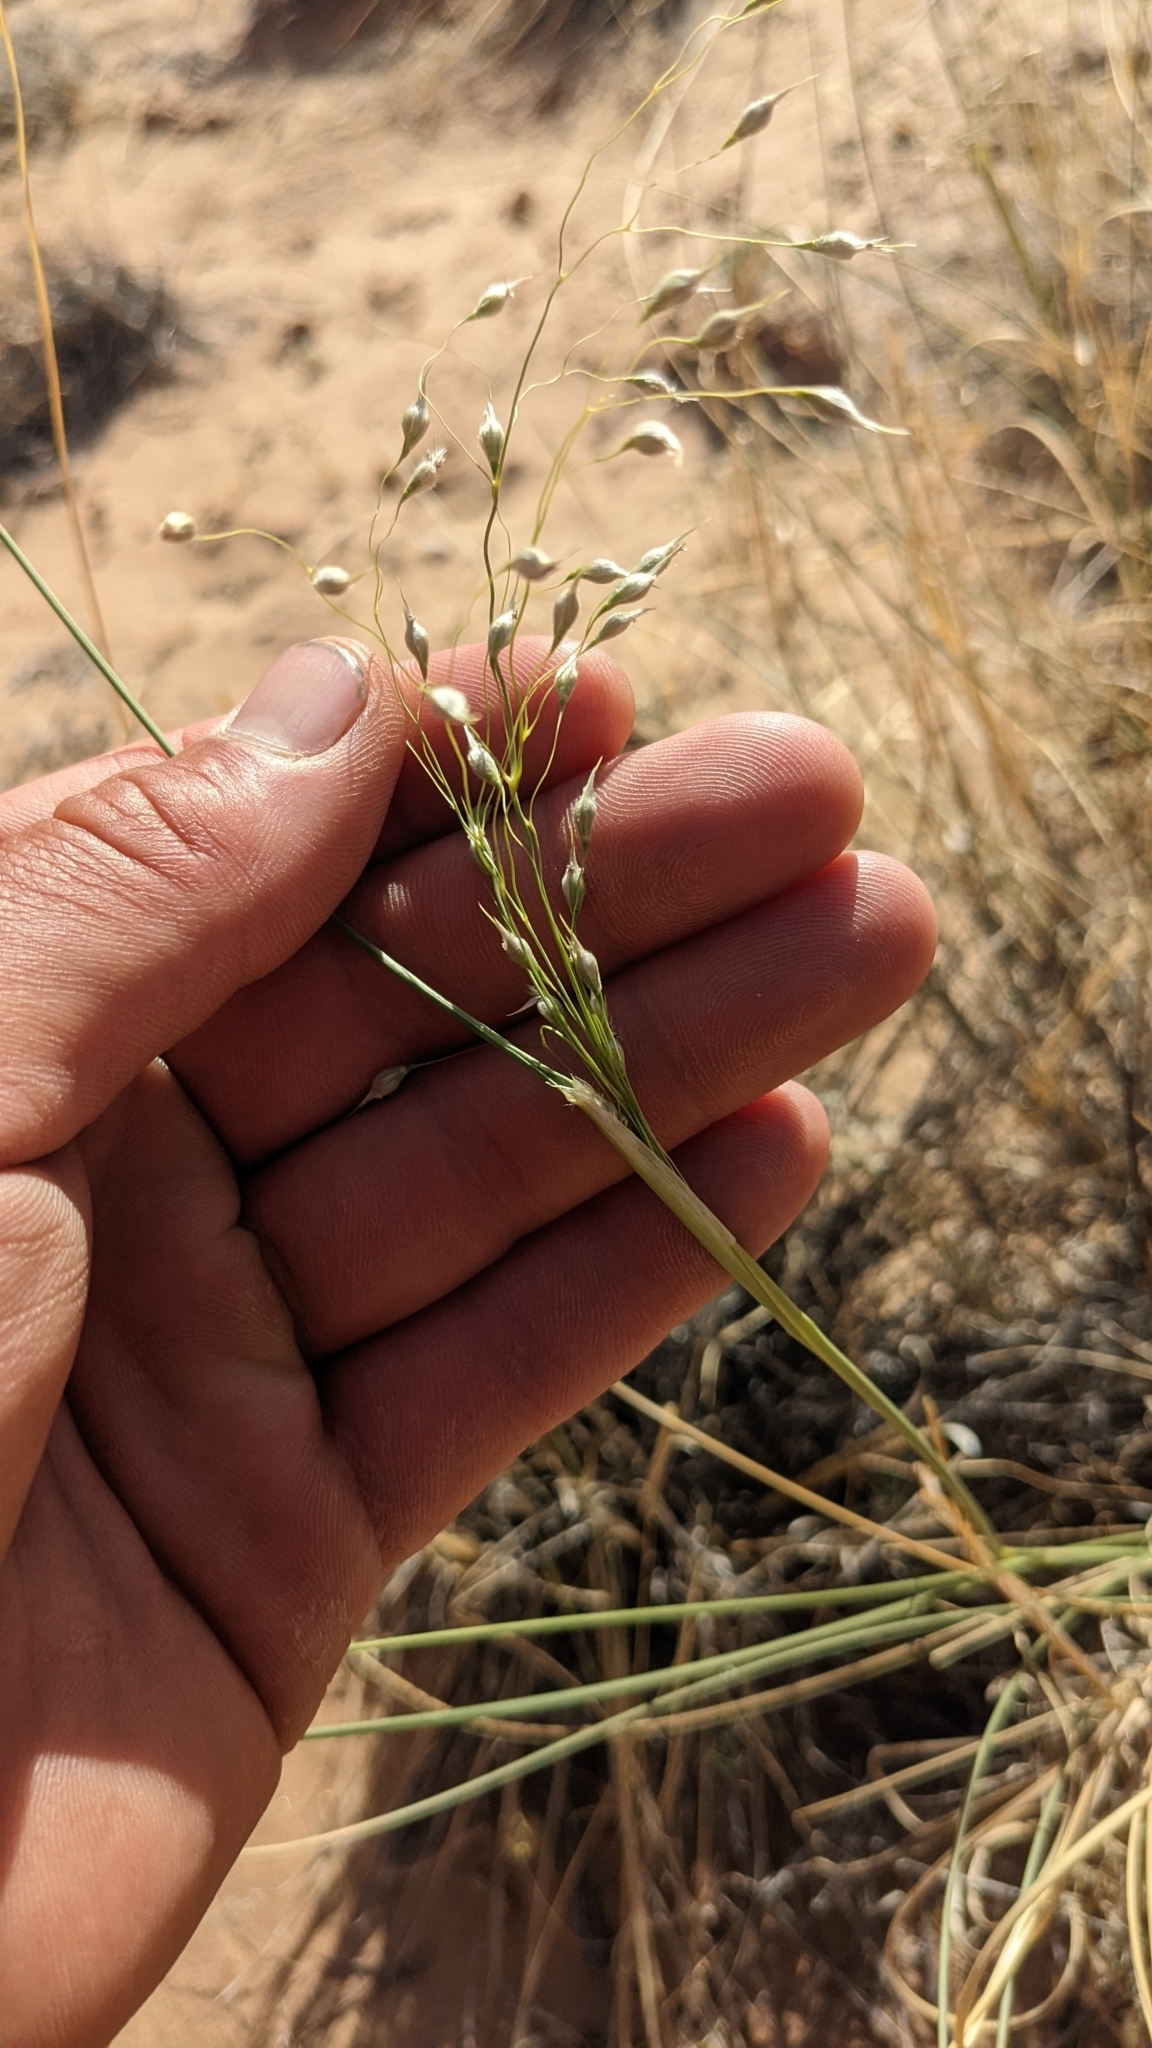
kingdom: Plantae
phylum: Tracheophyta
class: Liliopsida
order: Poales
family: Poaceae
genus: Eriocoma
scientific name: Eriocoma hymenoides
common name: Indian mountain ricegrass
